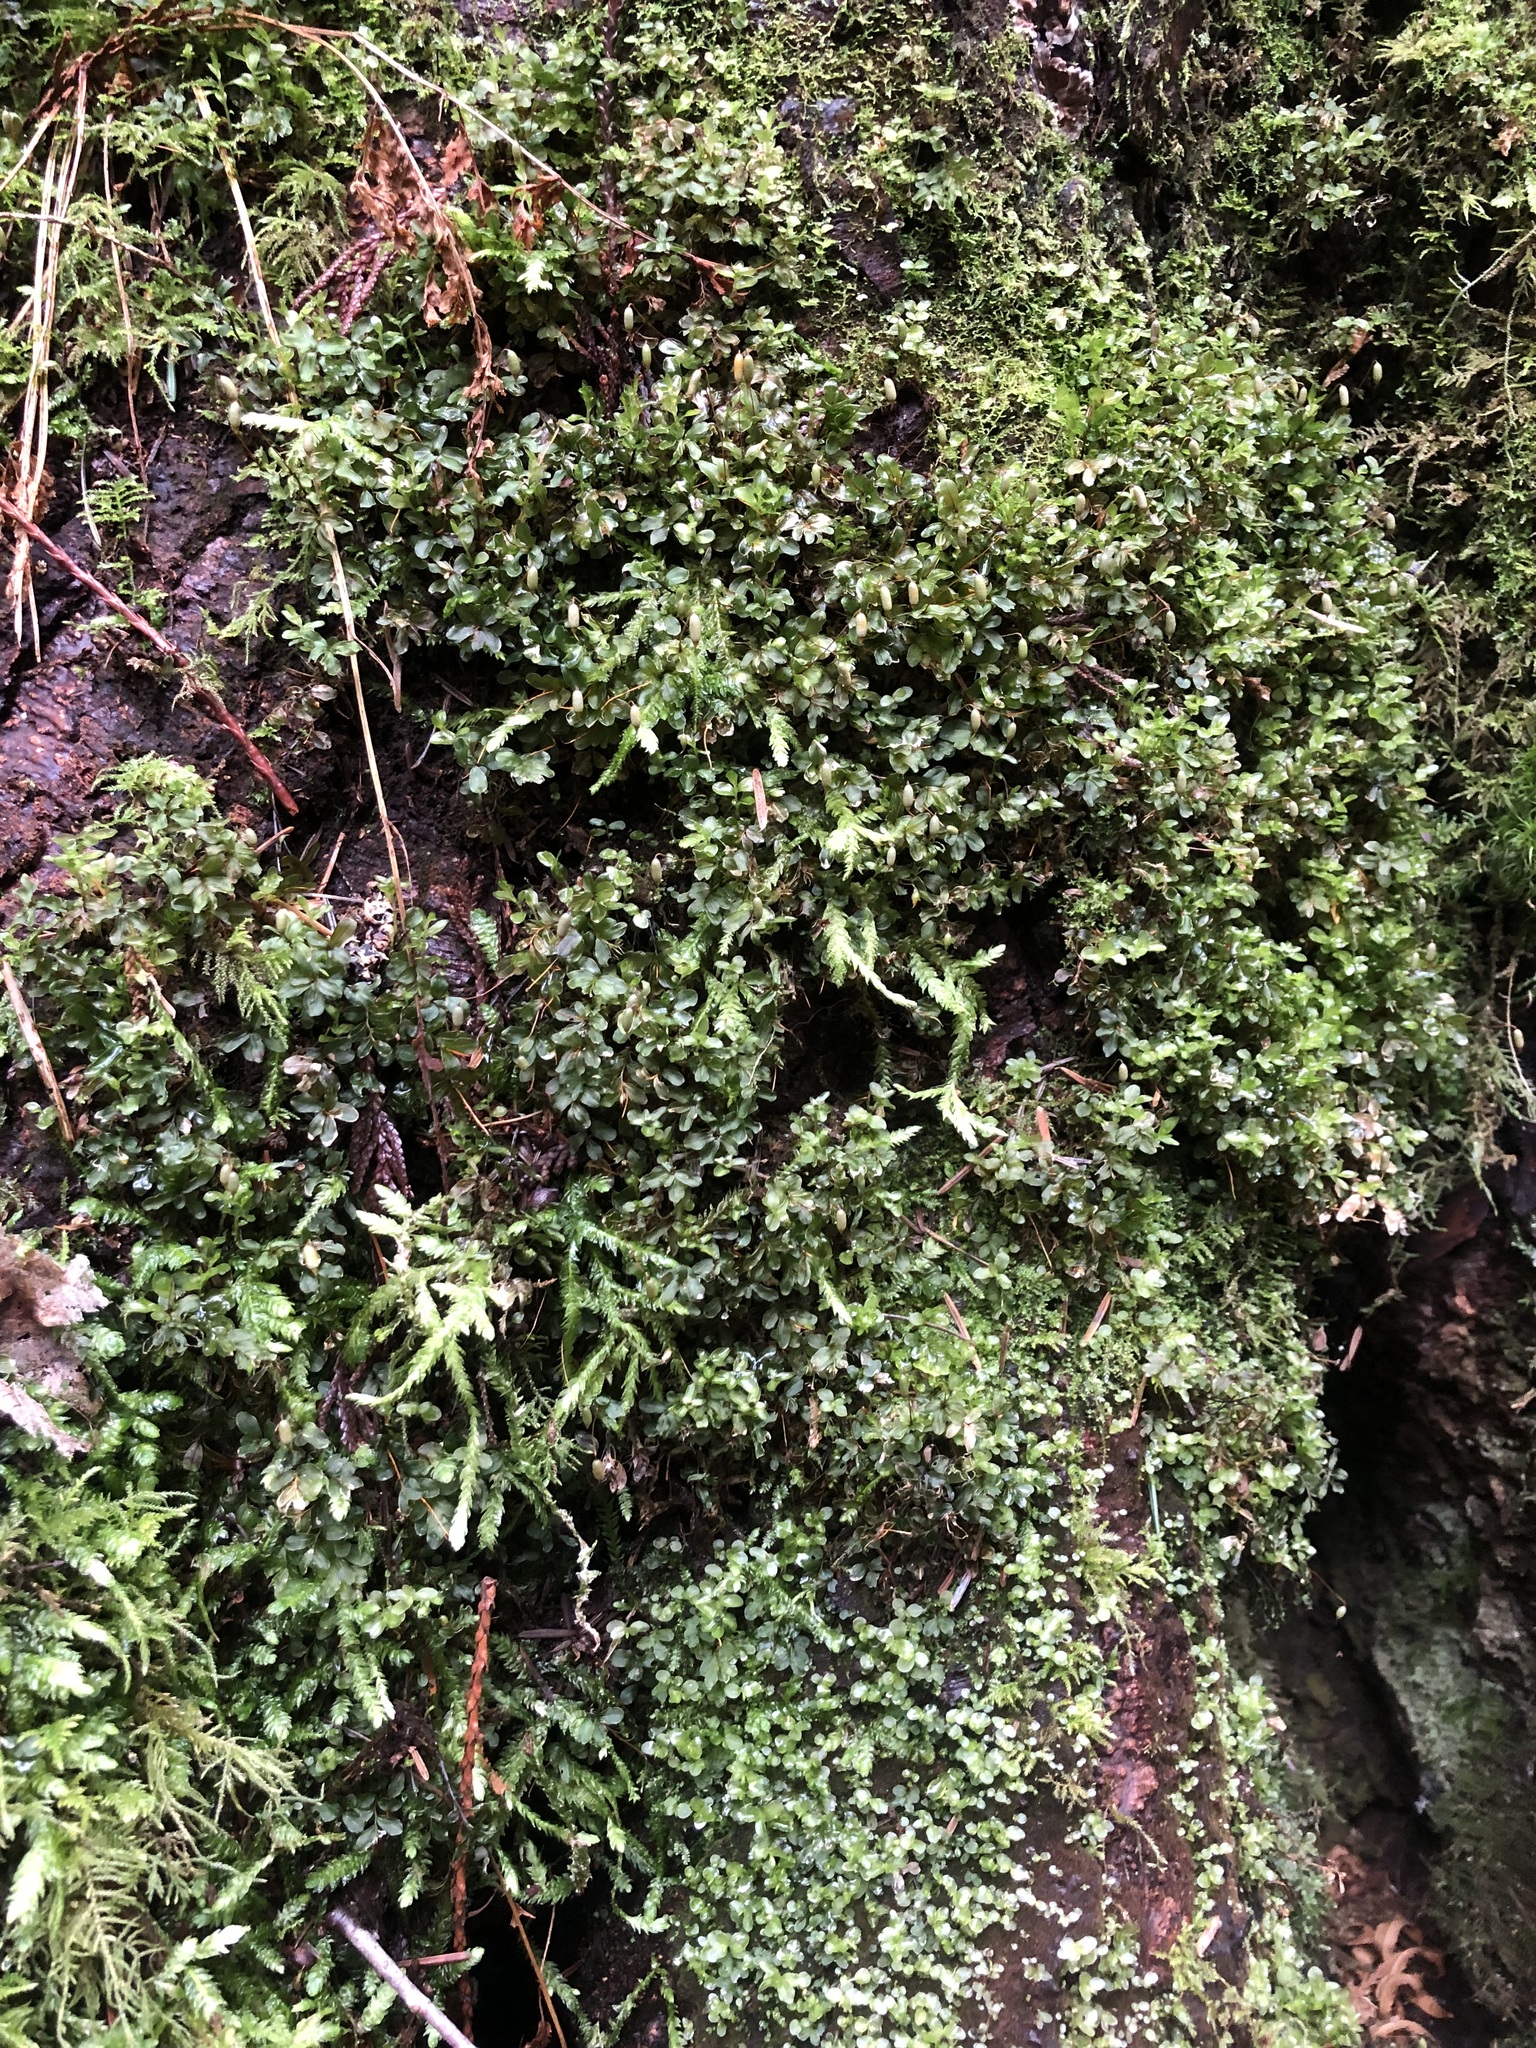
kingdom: Plantae
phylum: Bryophyta
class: Bryopsida
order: Bryales
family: Mniaceae
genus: Rhizomnium
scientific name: Rhizomnium glabrescens
